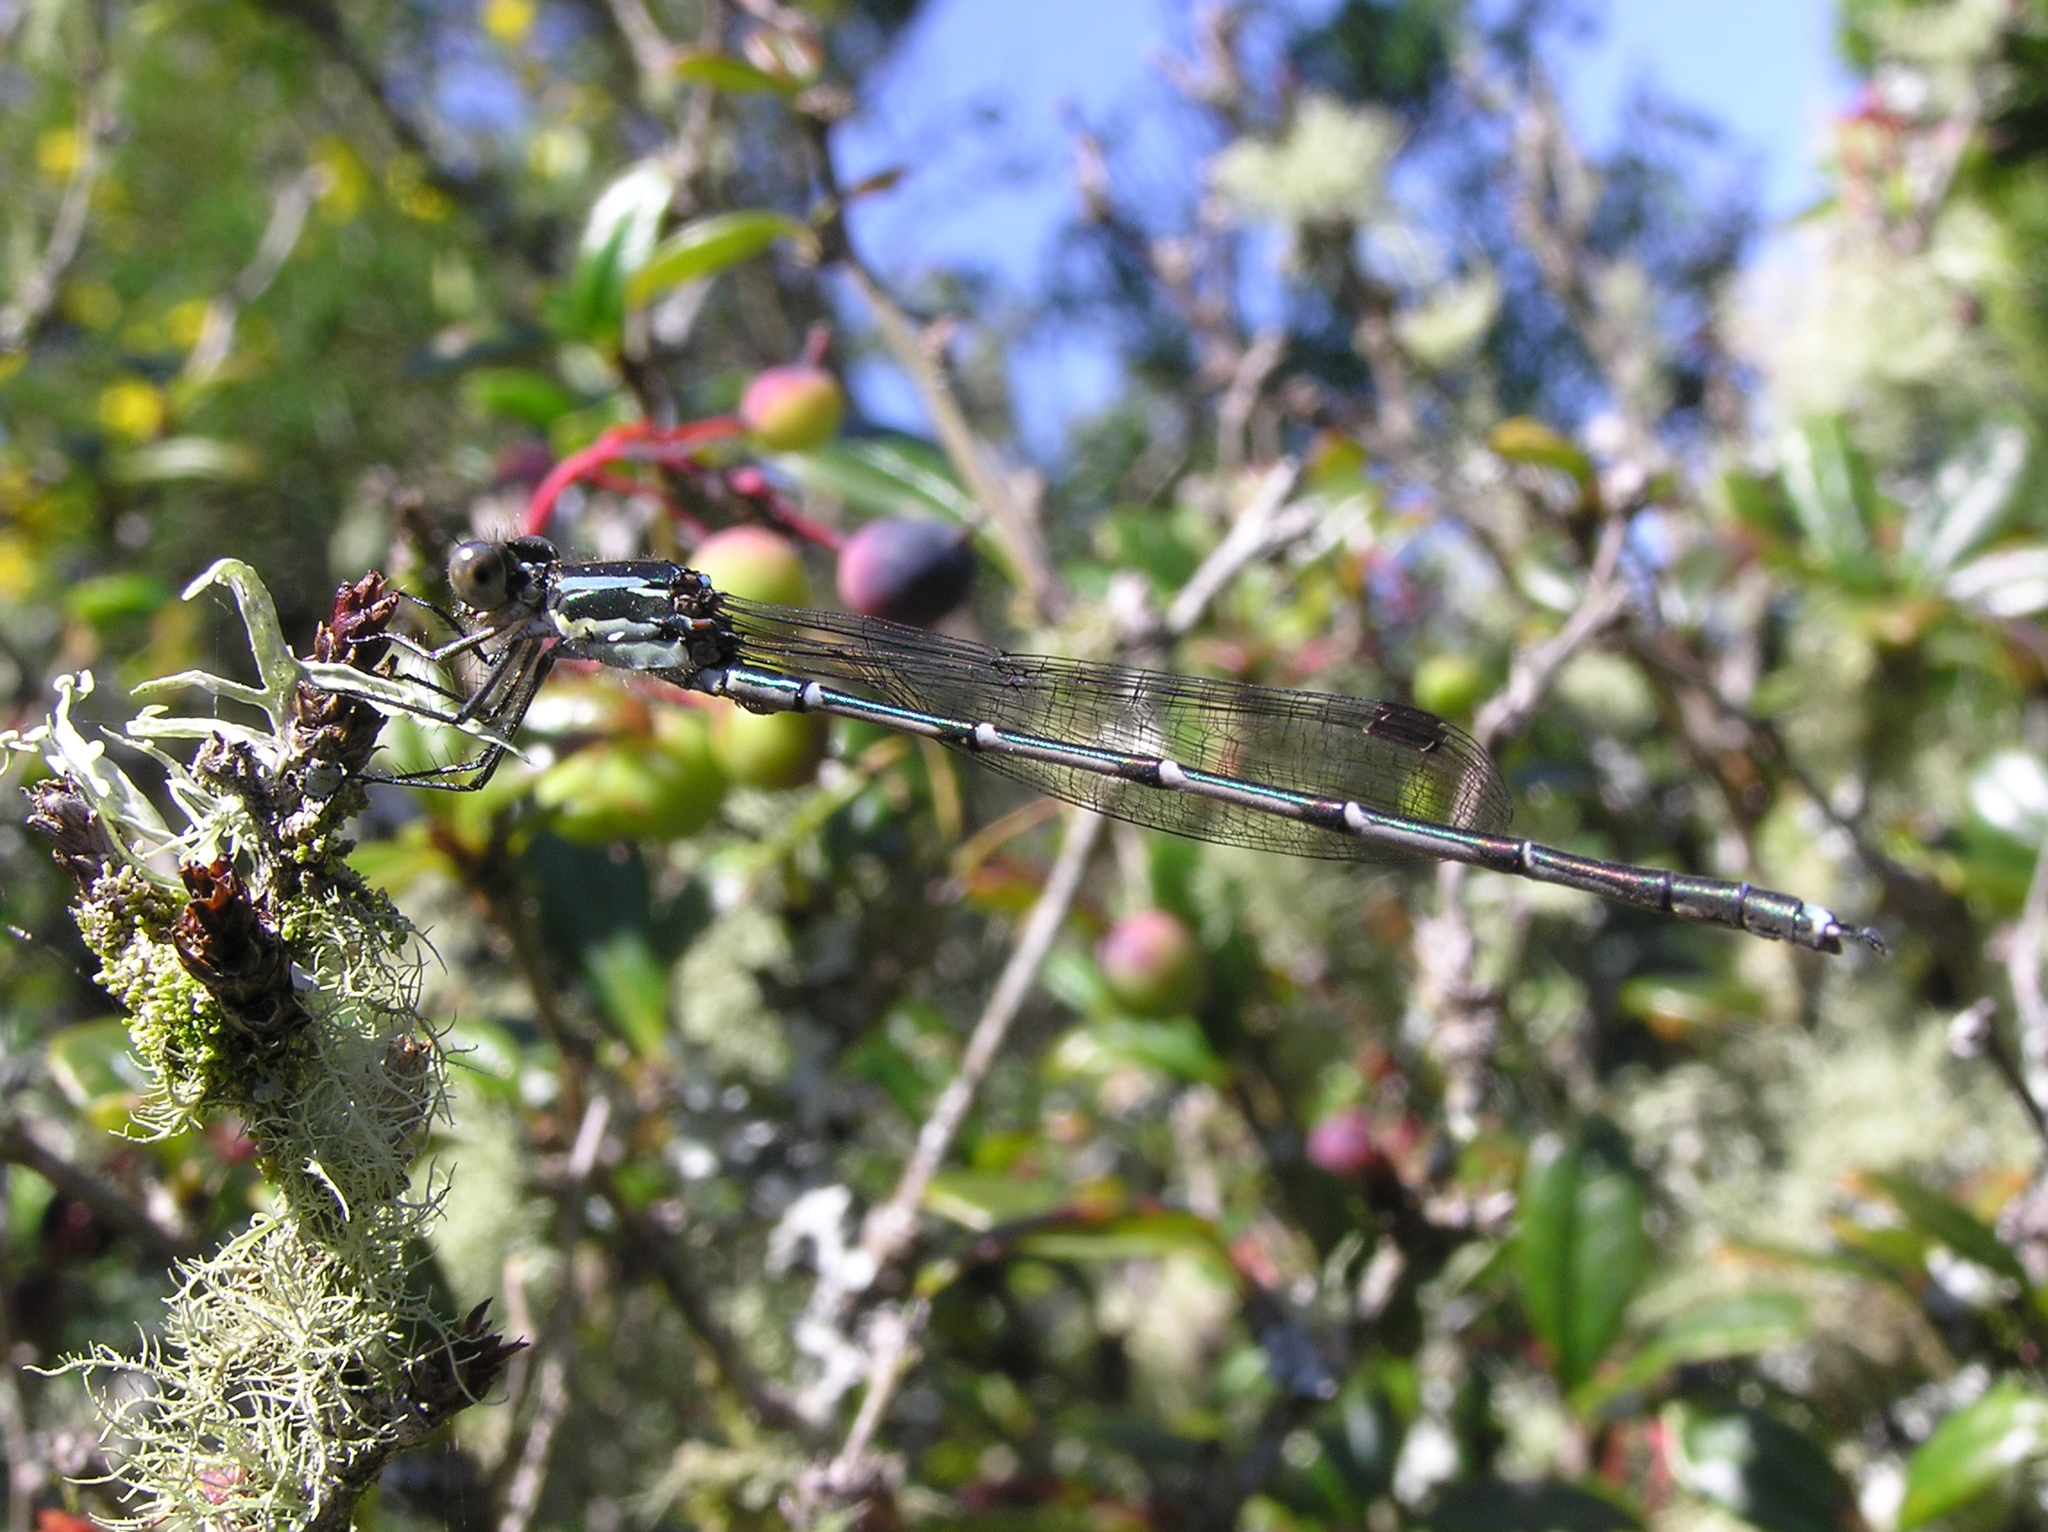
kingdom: Animalia
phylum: Arthropoda
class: Insecta
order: Odonata
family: Lestidae
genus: Austrolestes
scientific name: Austrolestes colensonis
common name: Blue damselfly
